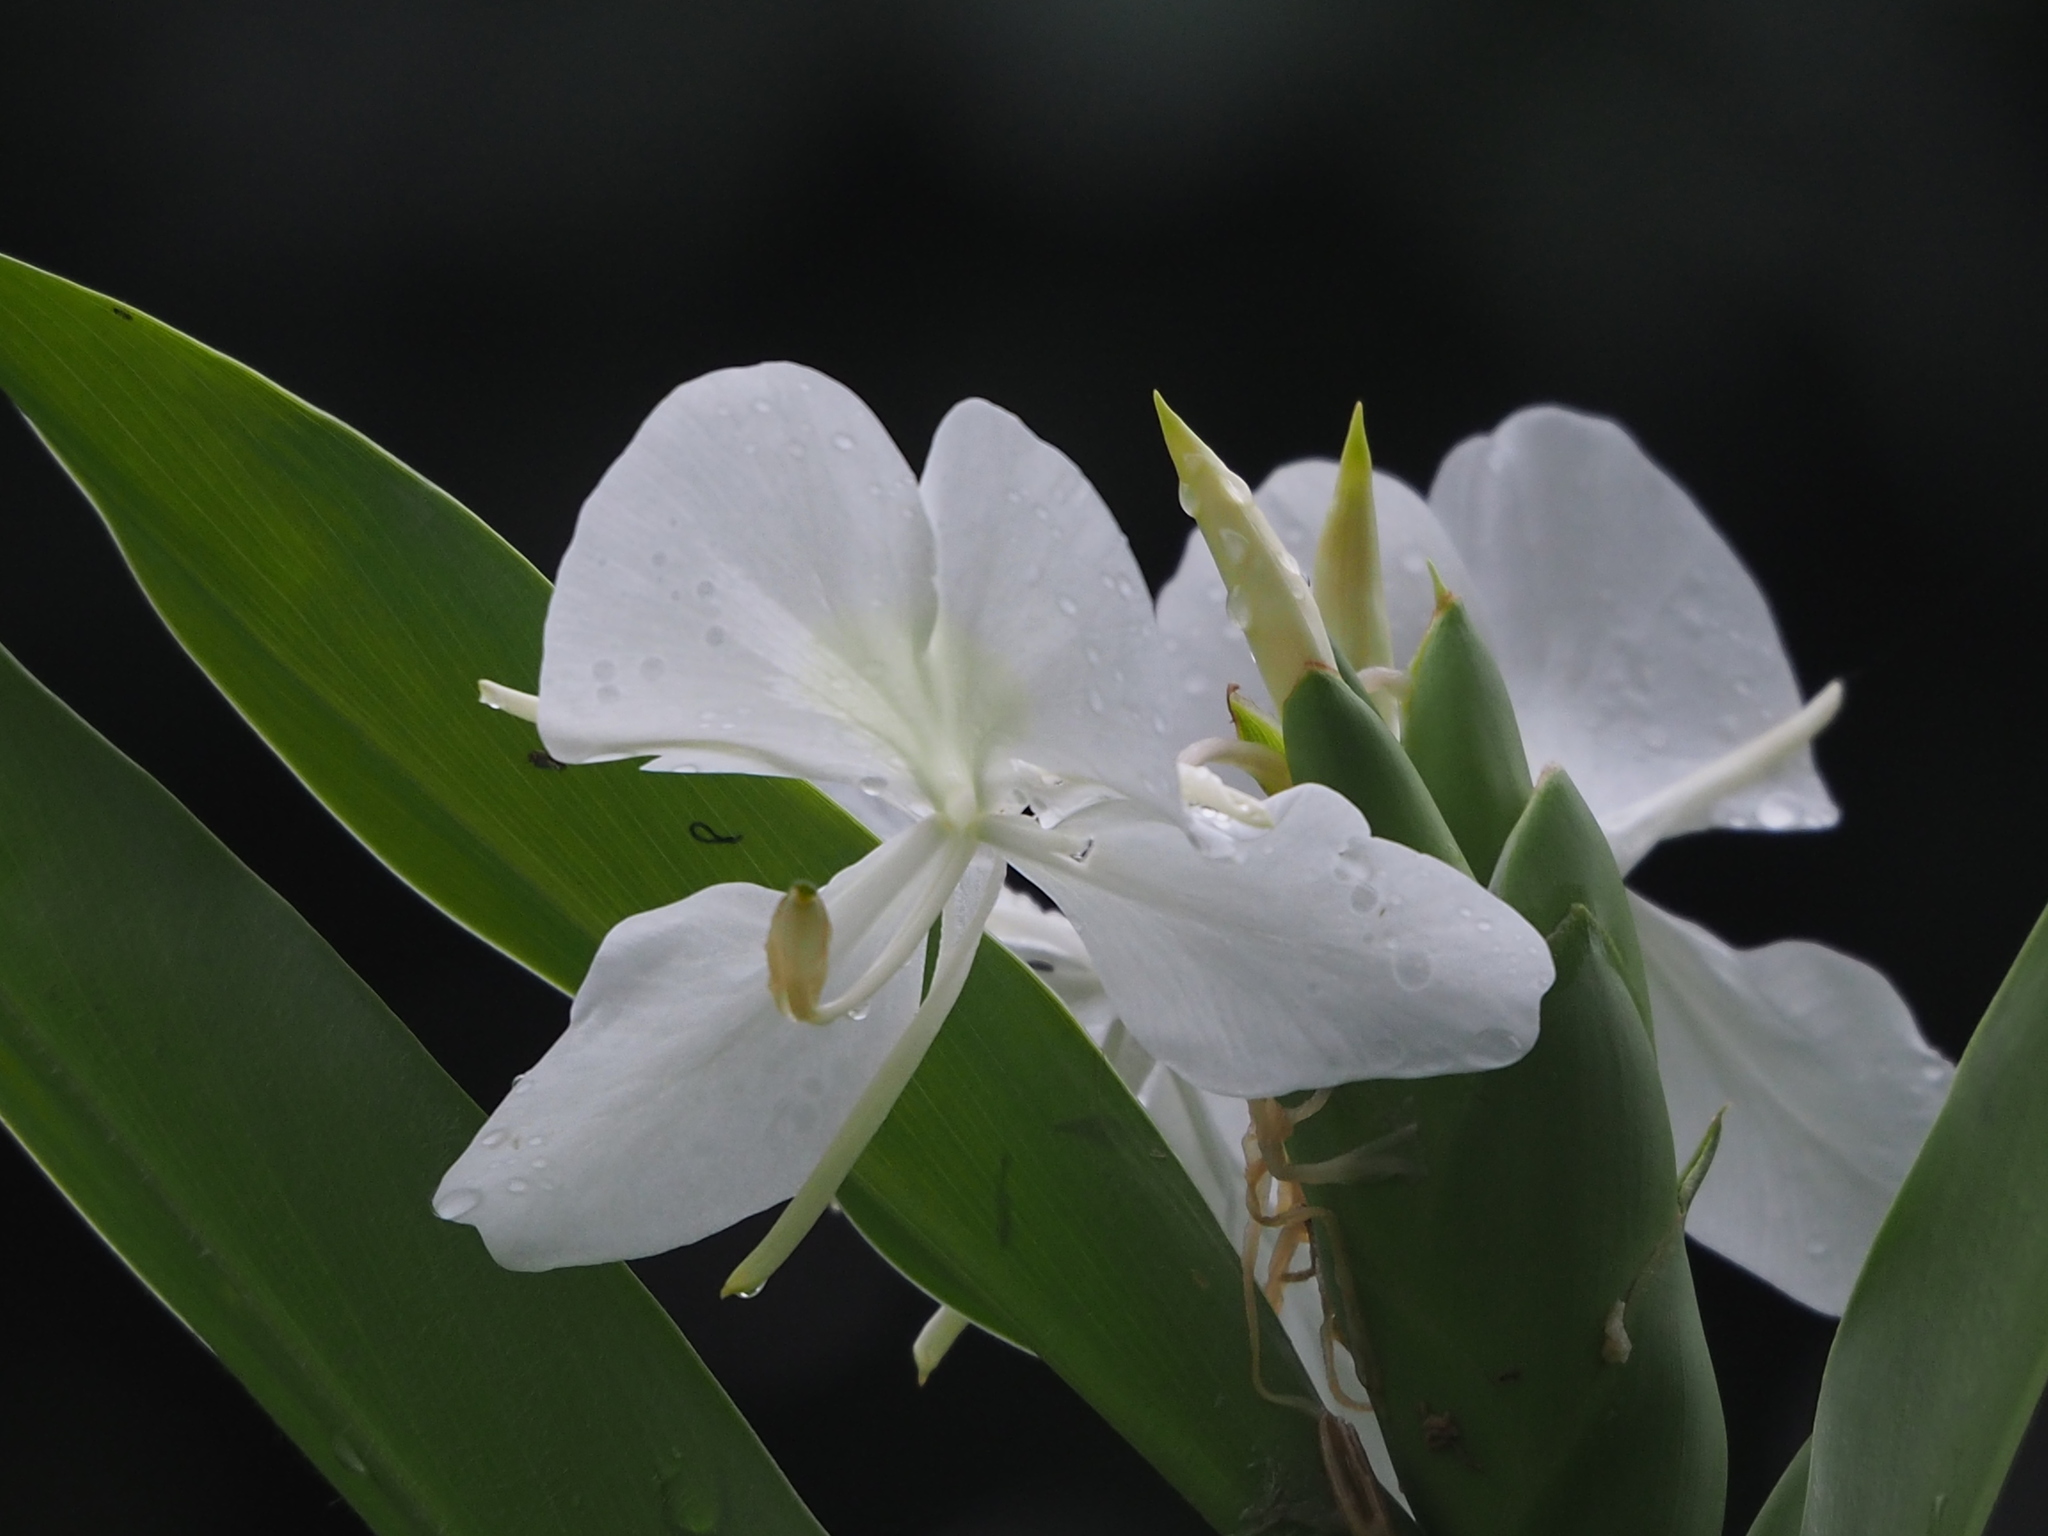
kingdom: Plantae
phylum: Tracheophyta
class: Liliopsida
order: Zingiberales
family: Zingiberaceae
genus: Hedychium
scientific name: Hedychium coronarium
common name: White garland-lily
